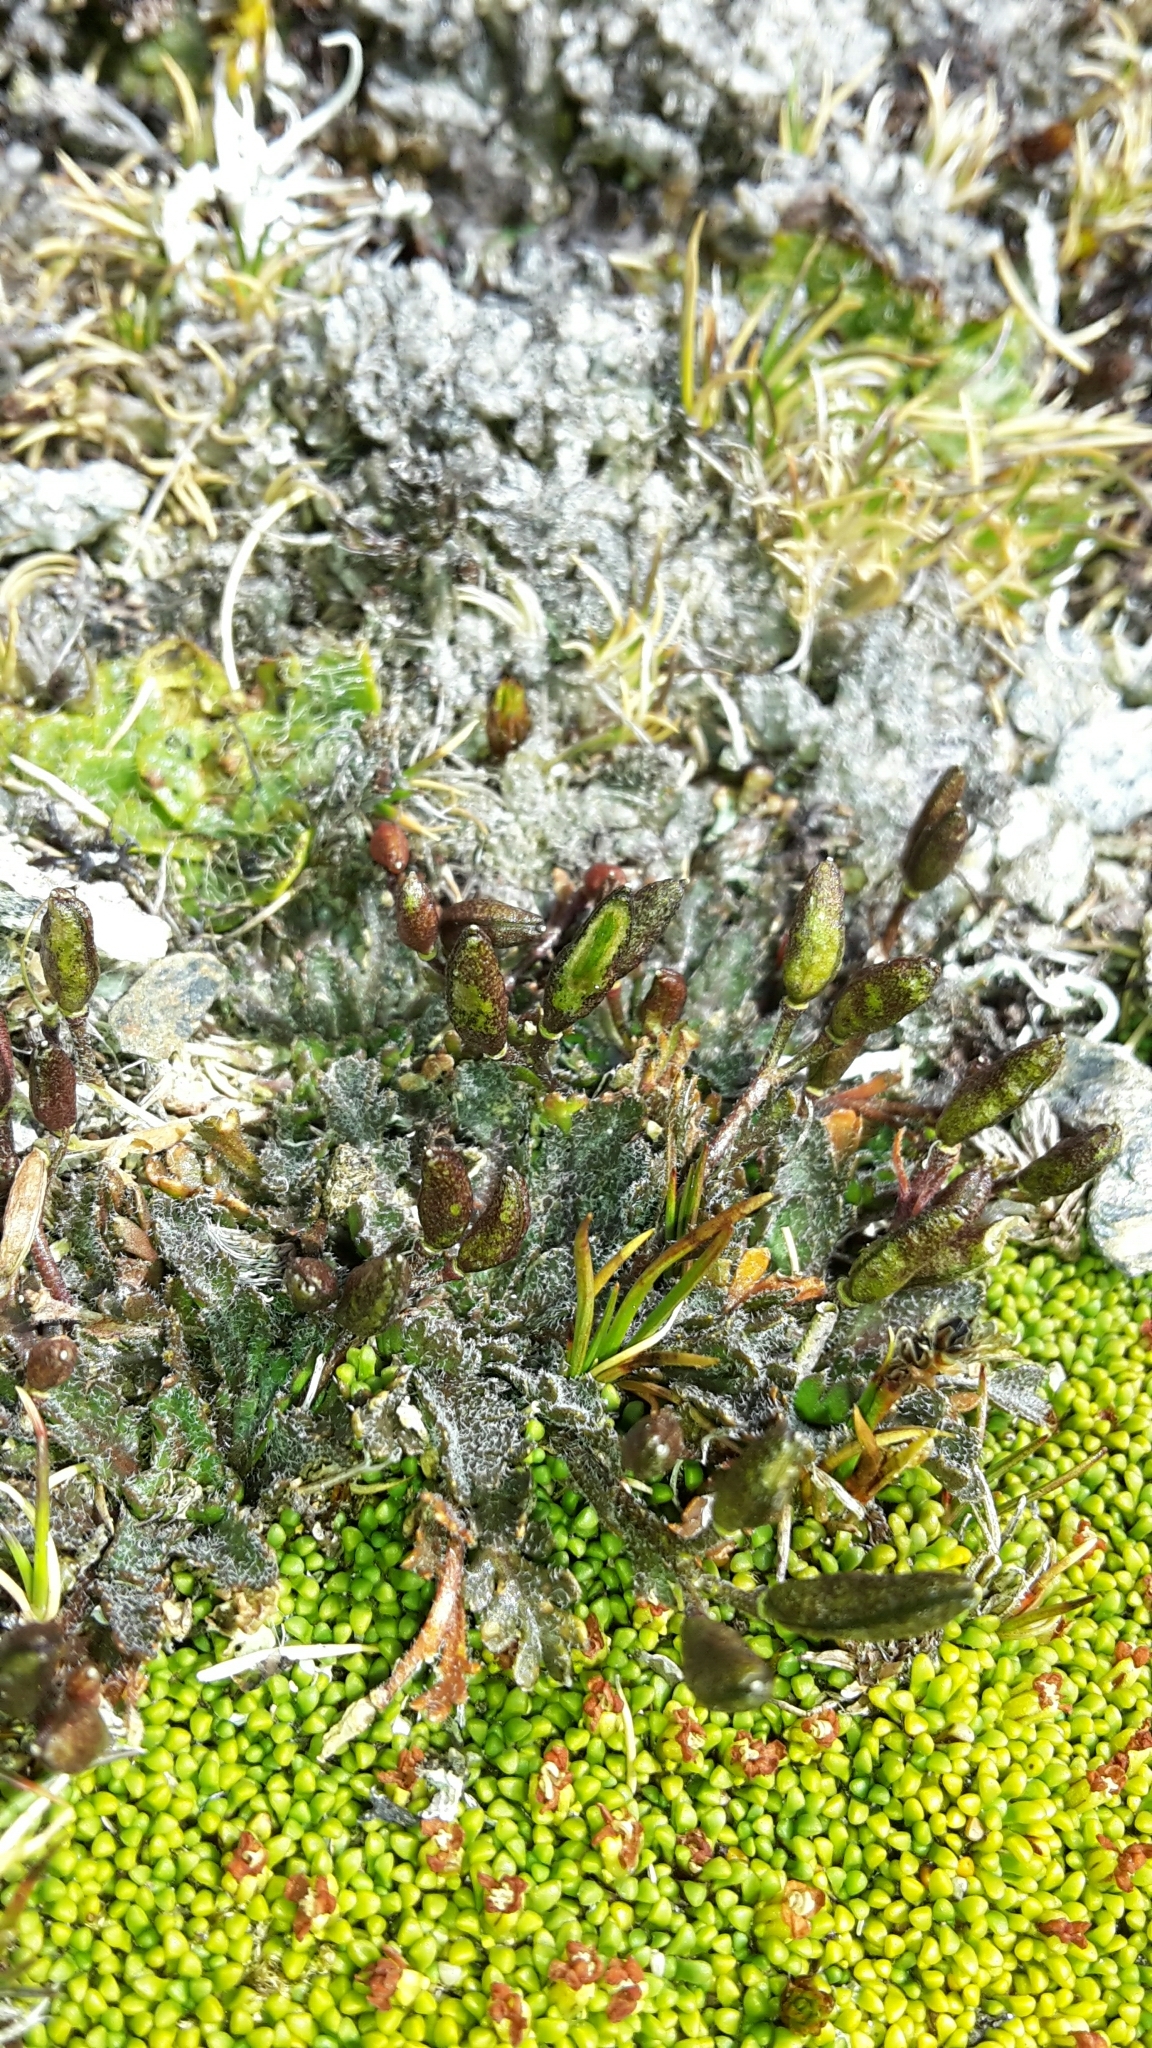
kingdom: Plantae
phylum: Tracheophyta
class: Magnoliopsida
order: Brassicales
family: Brassicaceae
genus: Pachycladon
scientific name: Pachycladon novae-zelandiae
